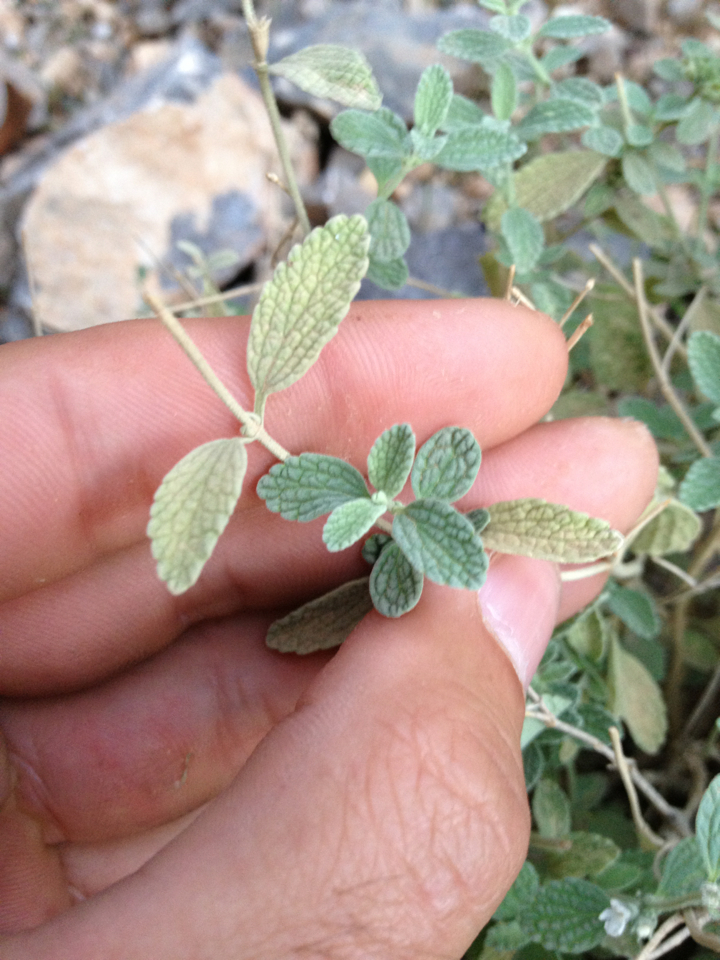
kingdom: Plantae
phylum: Tracheophyta
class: Magnoliopsida
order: Lamiales
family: Lamiaceae
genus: Marrubium
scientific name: Marrubium litardierei
